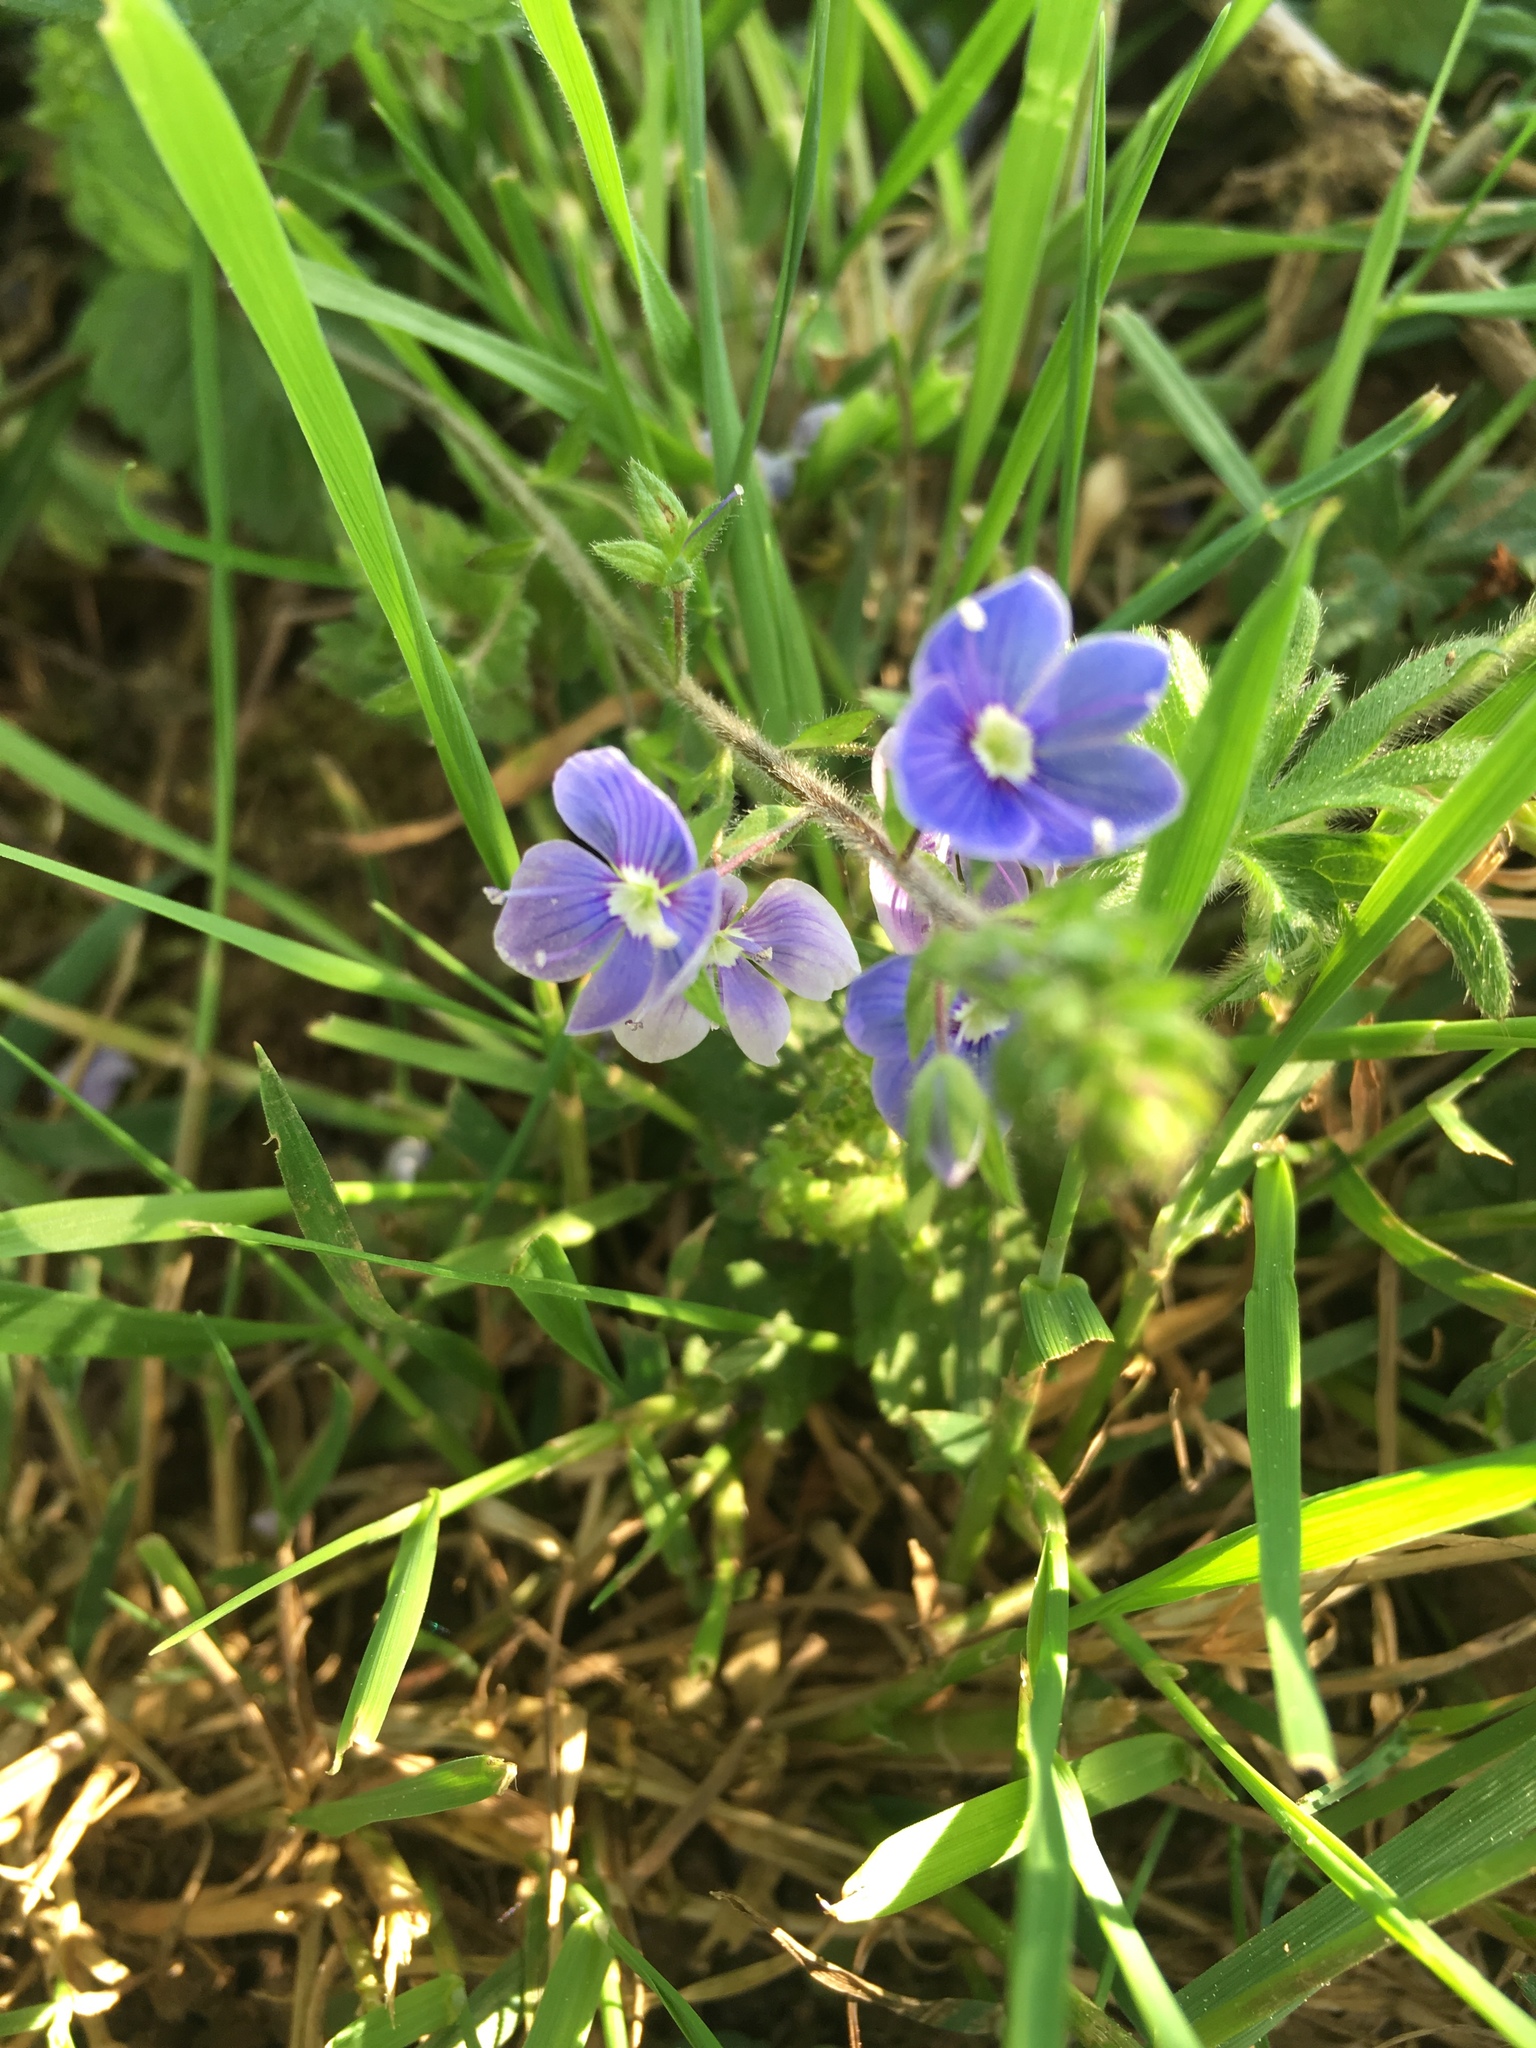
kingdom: Plantae
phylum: Tracheophyta
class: Magnoliopsida
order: Lamiales
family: Plantaginaceae
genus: Veronica
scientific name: Veronica chamaedrys
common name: Germander speedwell
